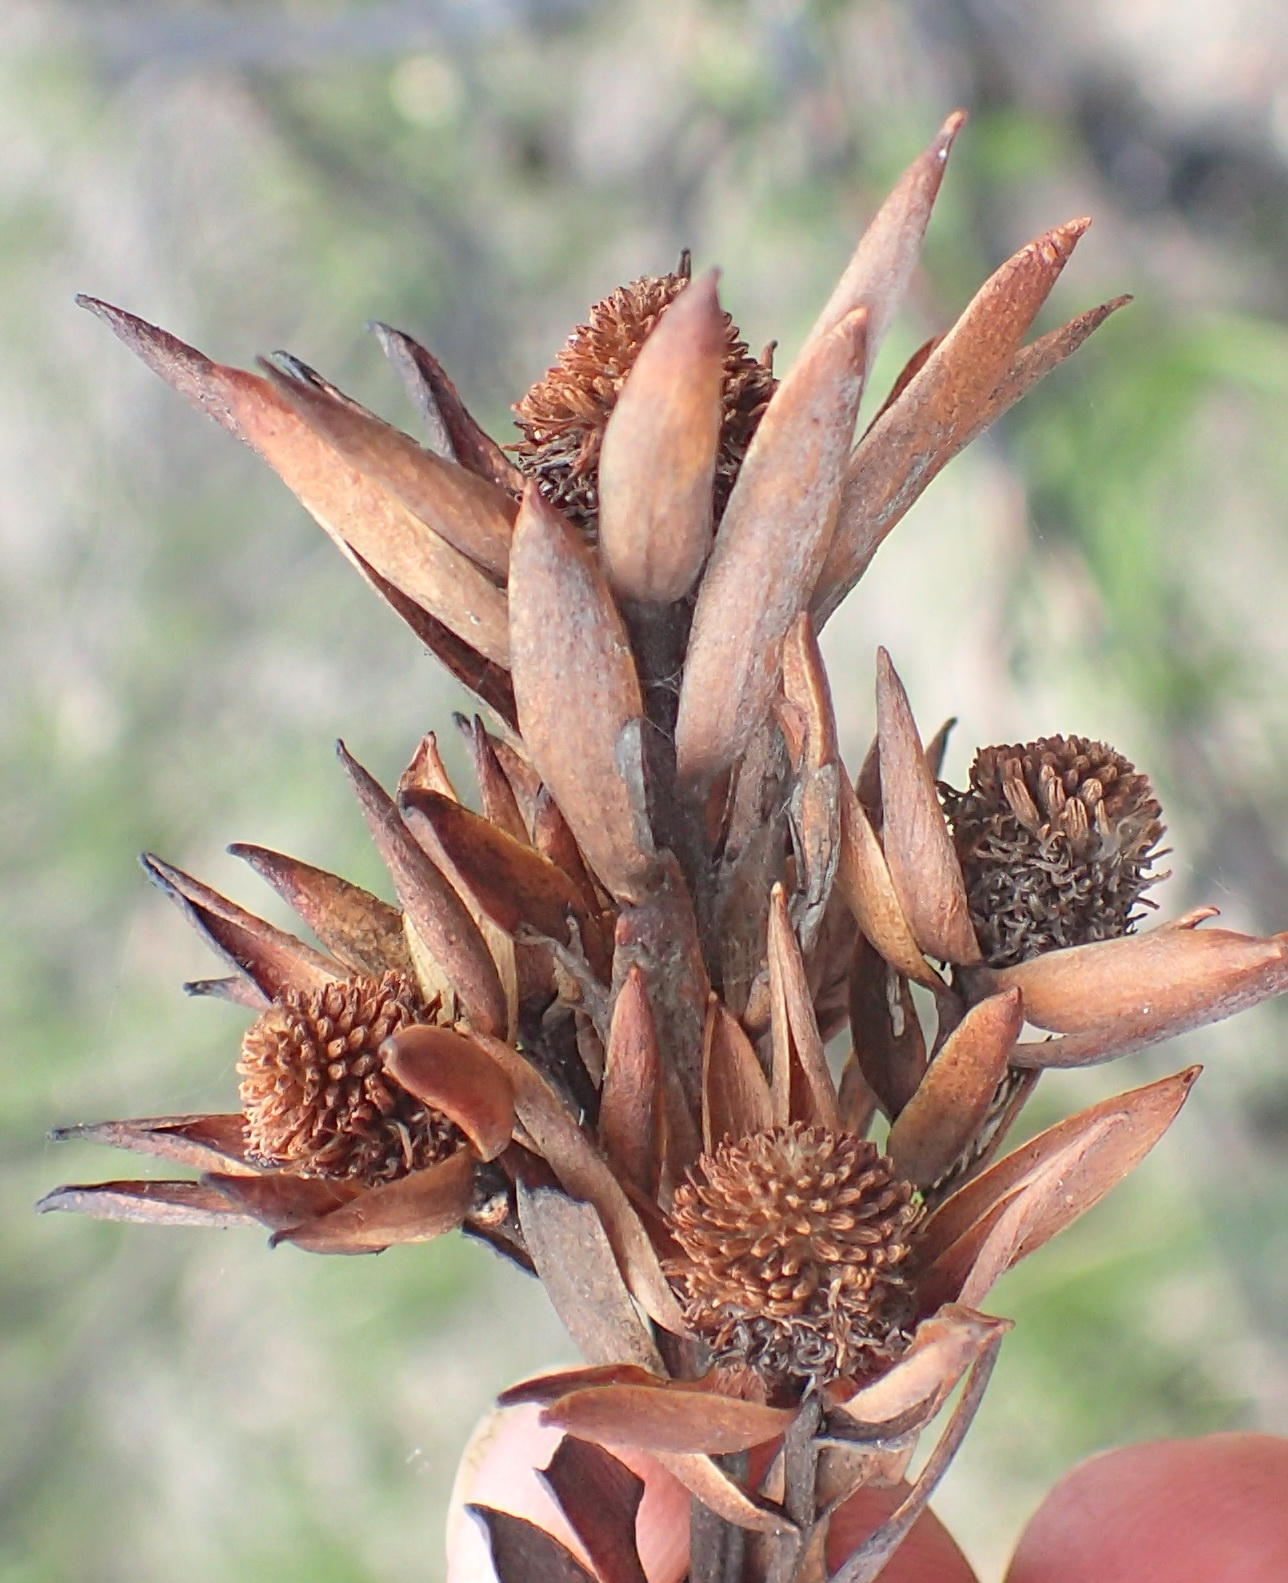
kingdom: Plantae
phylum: Tracheophyta
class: Magnoliopsida
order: Proteales
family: Proteaceae
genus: Leucadendron
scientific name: Leucadendron uliginosum
